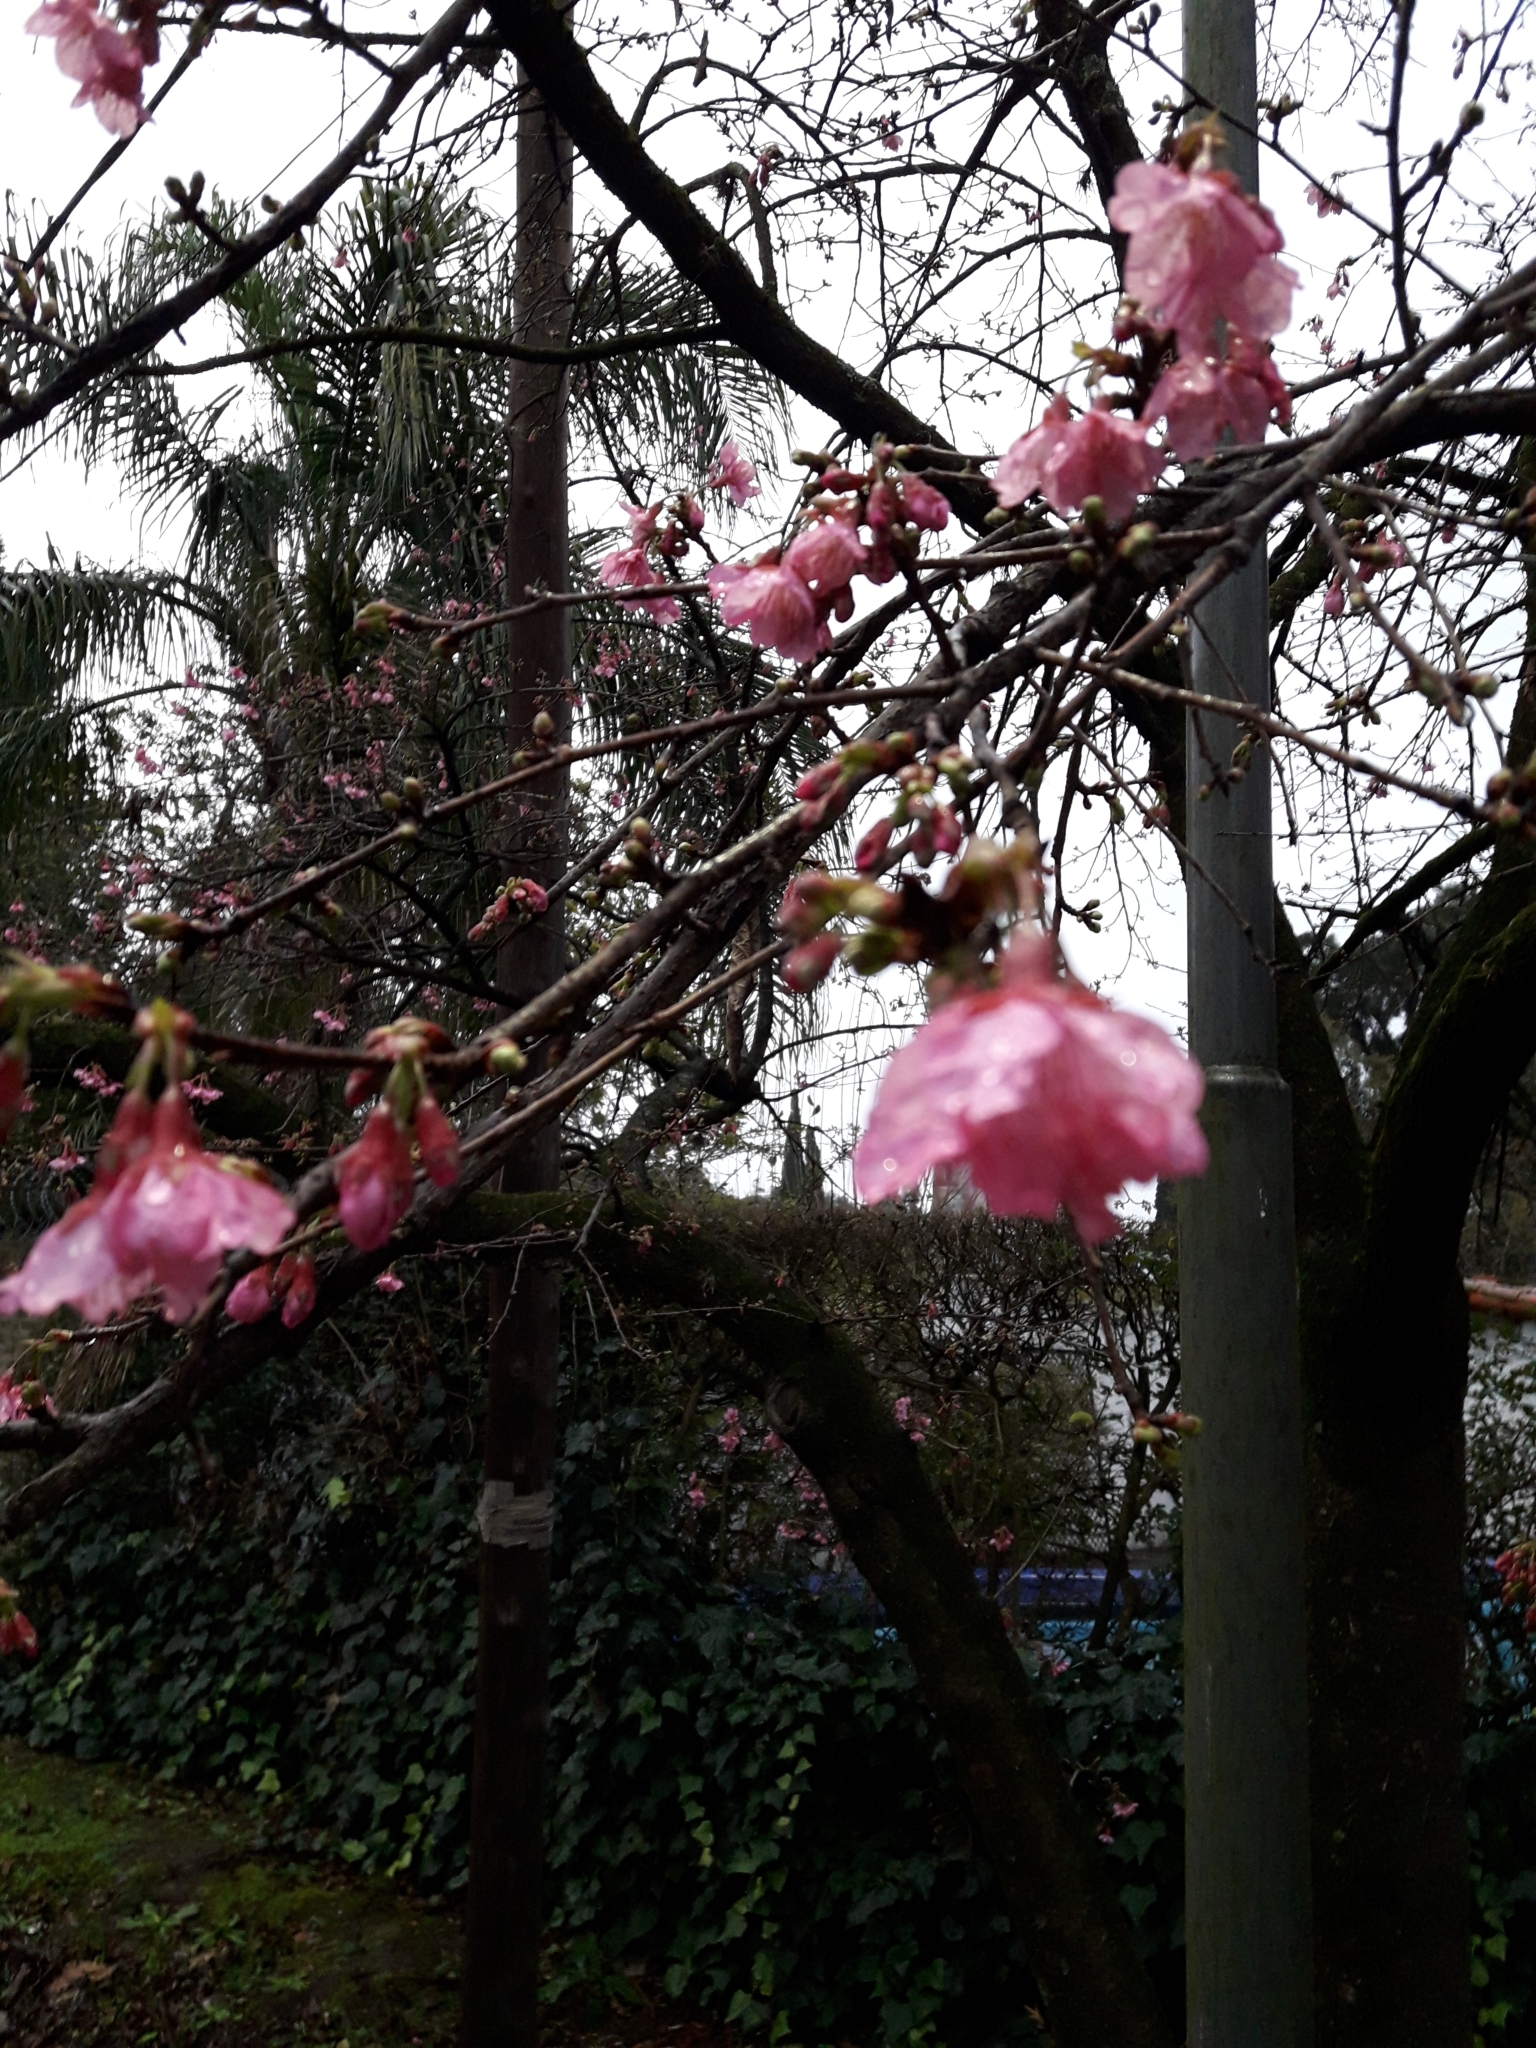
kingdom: Plantae
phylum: Tracheophyta
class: Magnoliopsida
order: Rosales
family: Rosaceae
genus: Prunus
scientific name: Prunus campanulata
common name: Taiwan flowering cherry
